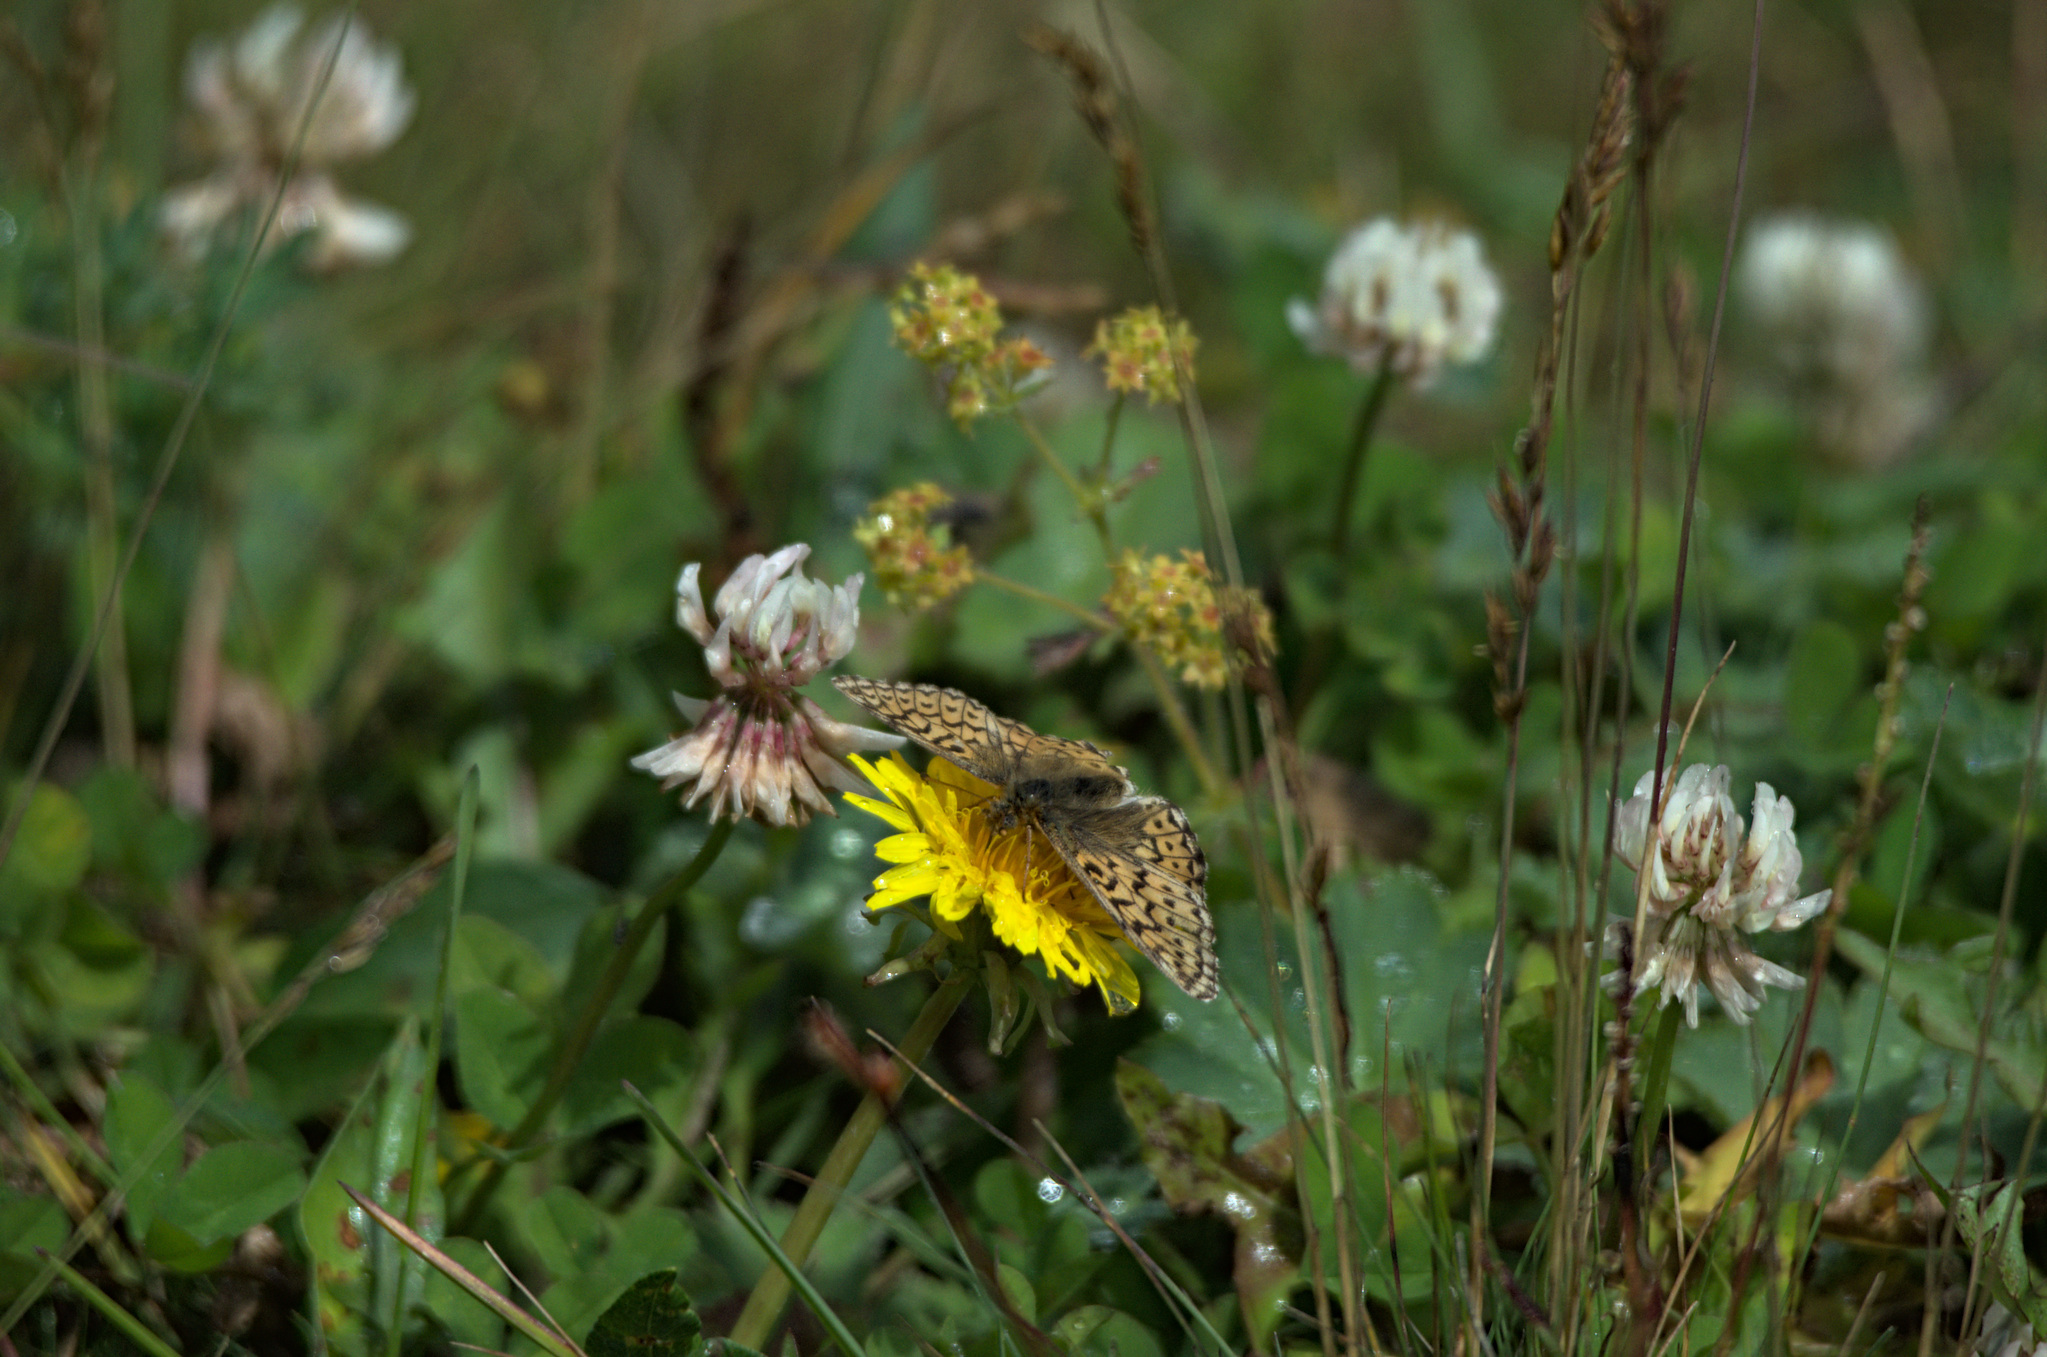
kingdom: Animalia
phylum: Arthropoda
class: Insecta
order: Lepidoptera
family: Nymphalidae
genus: Boloria
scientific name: Boloria
